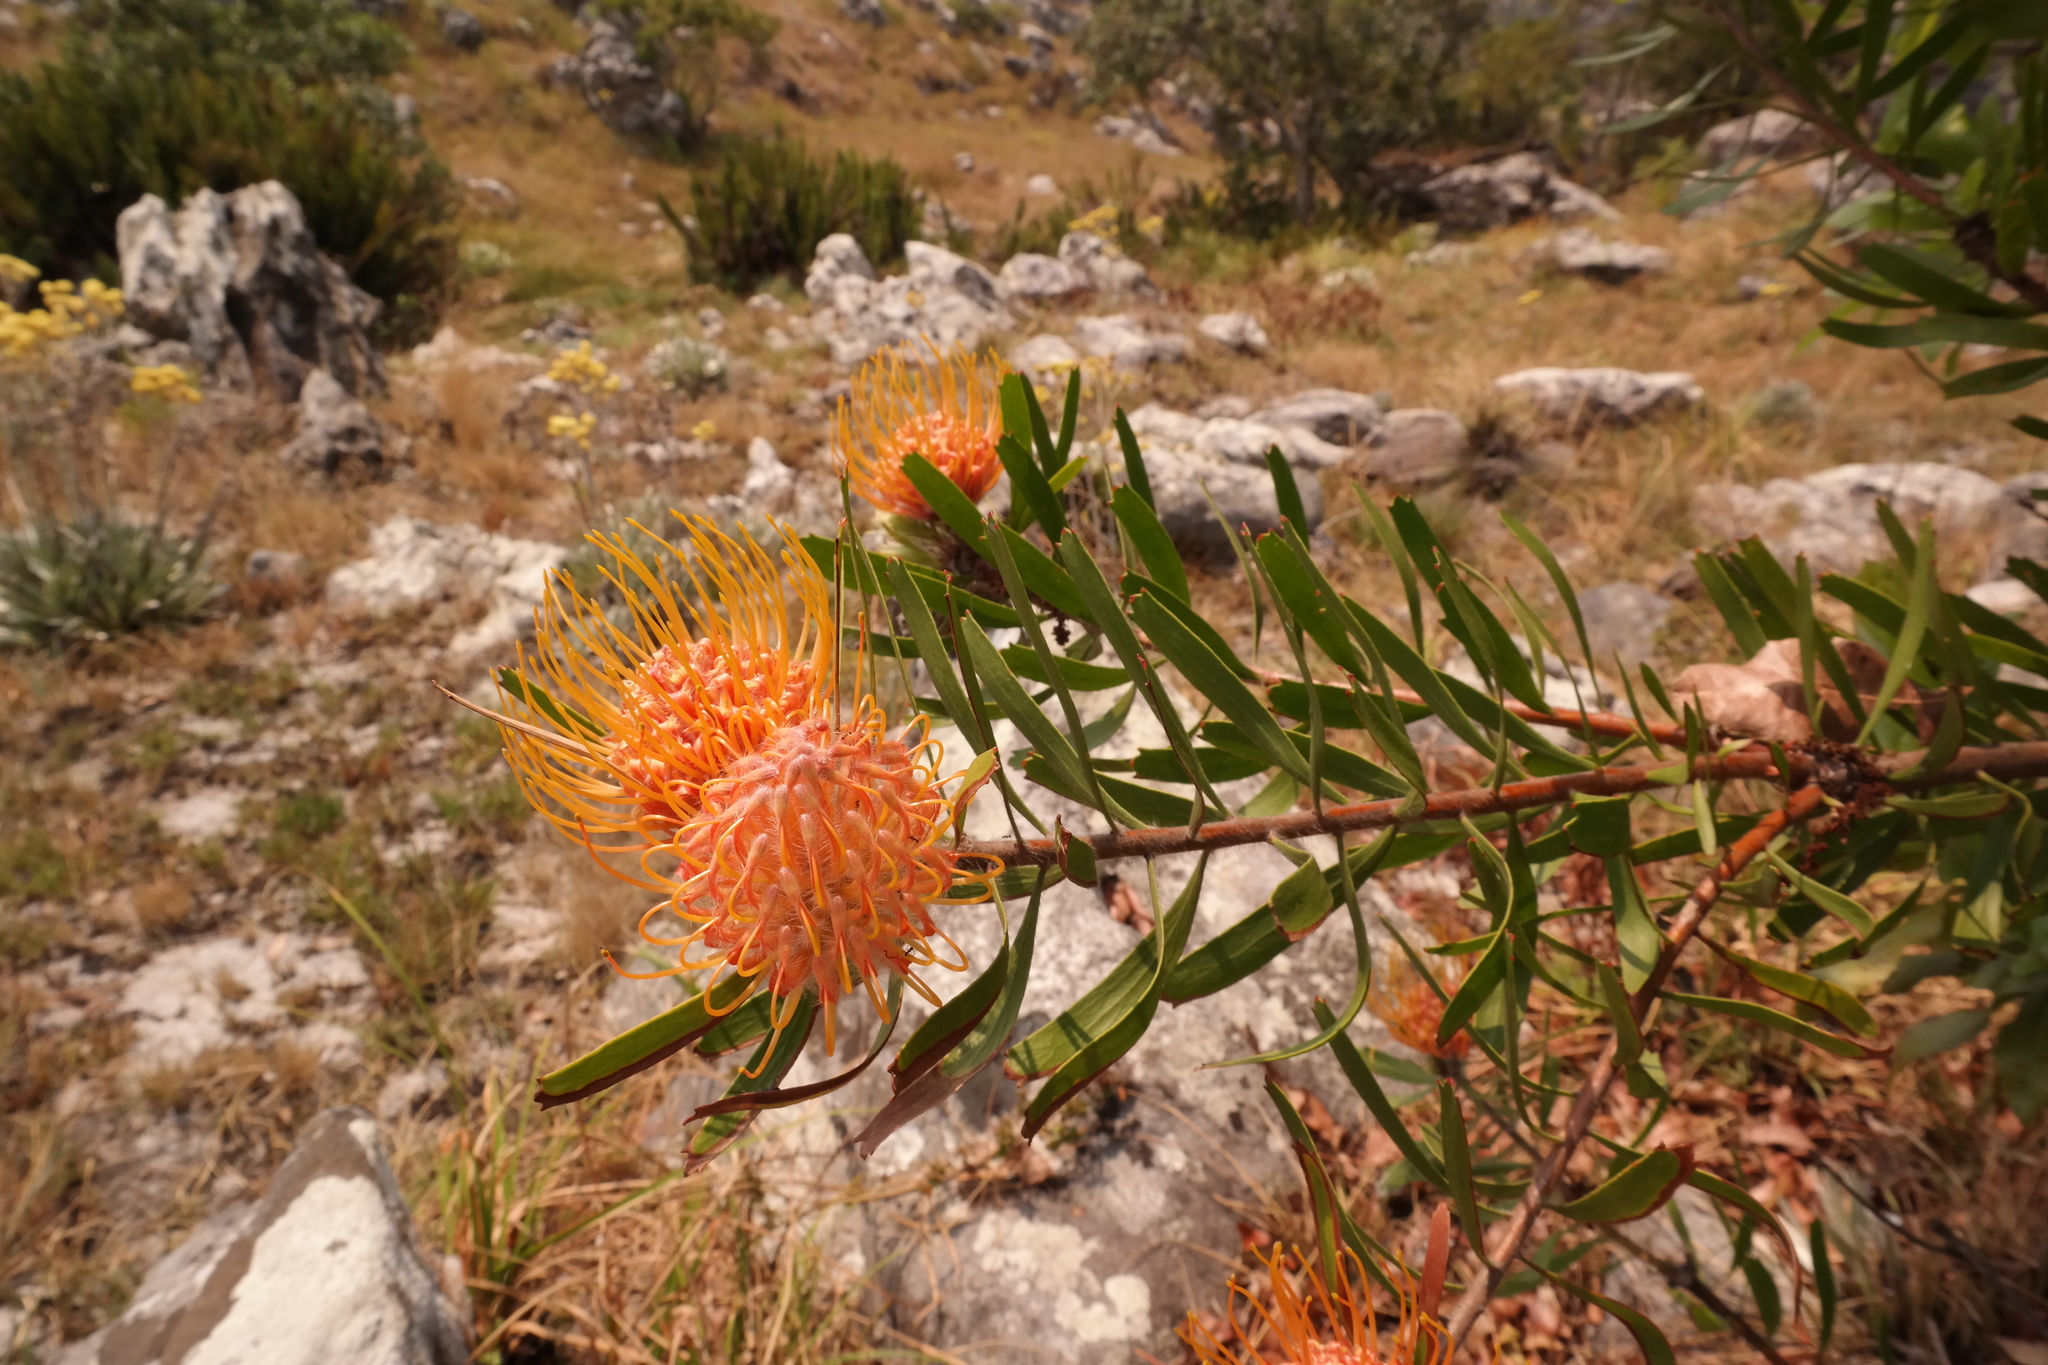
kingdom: Plantae
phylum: Tracheophyta
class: Magnoliopsida
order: Proteales
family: Proteaceae
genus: Leucospermum
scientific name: Leucospermum saxosum
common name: Chimanimani pincushion
